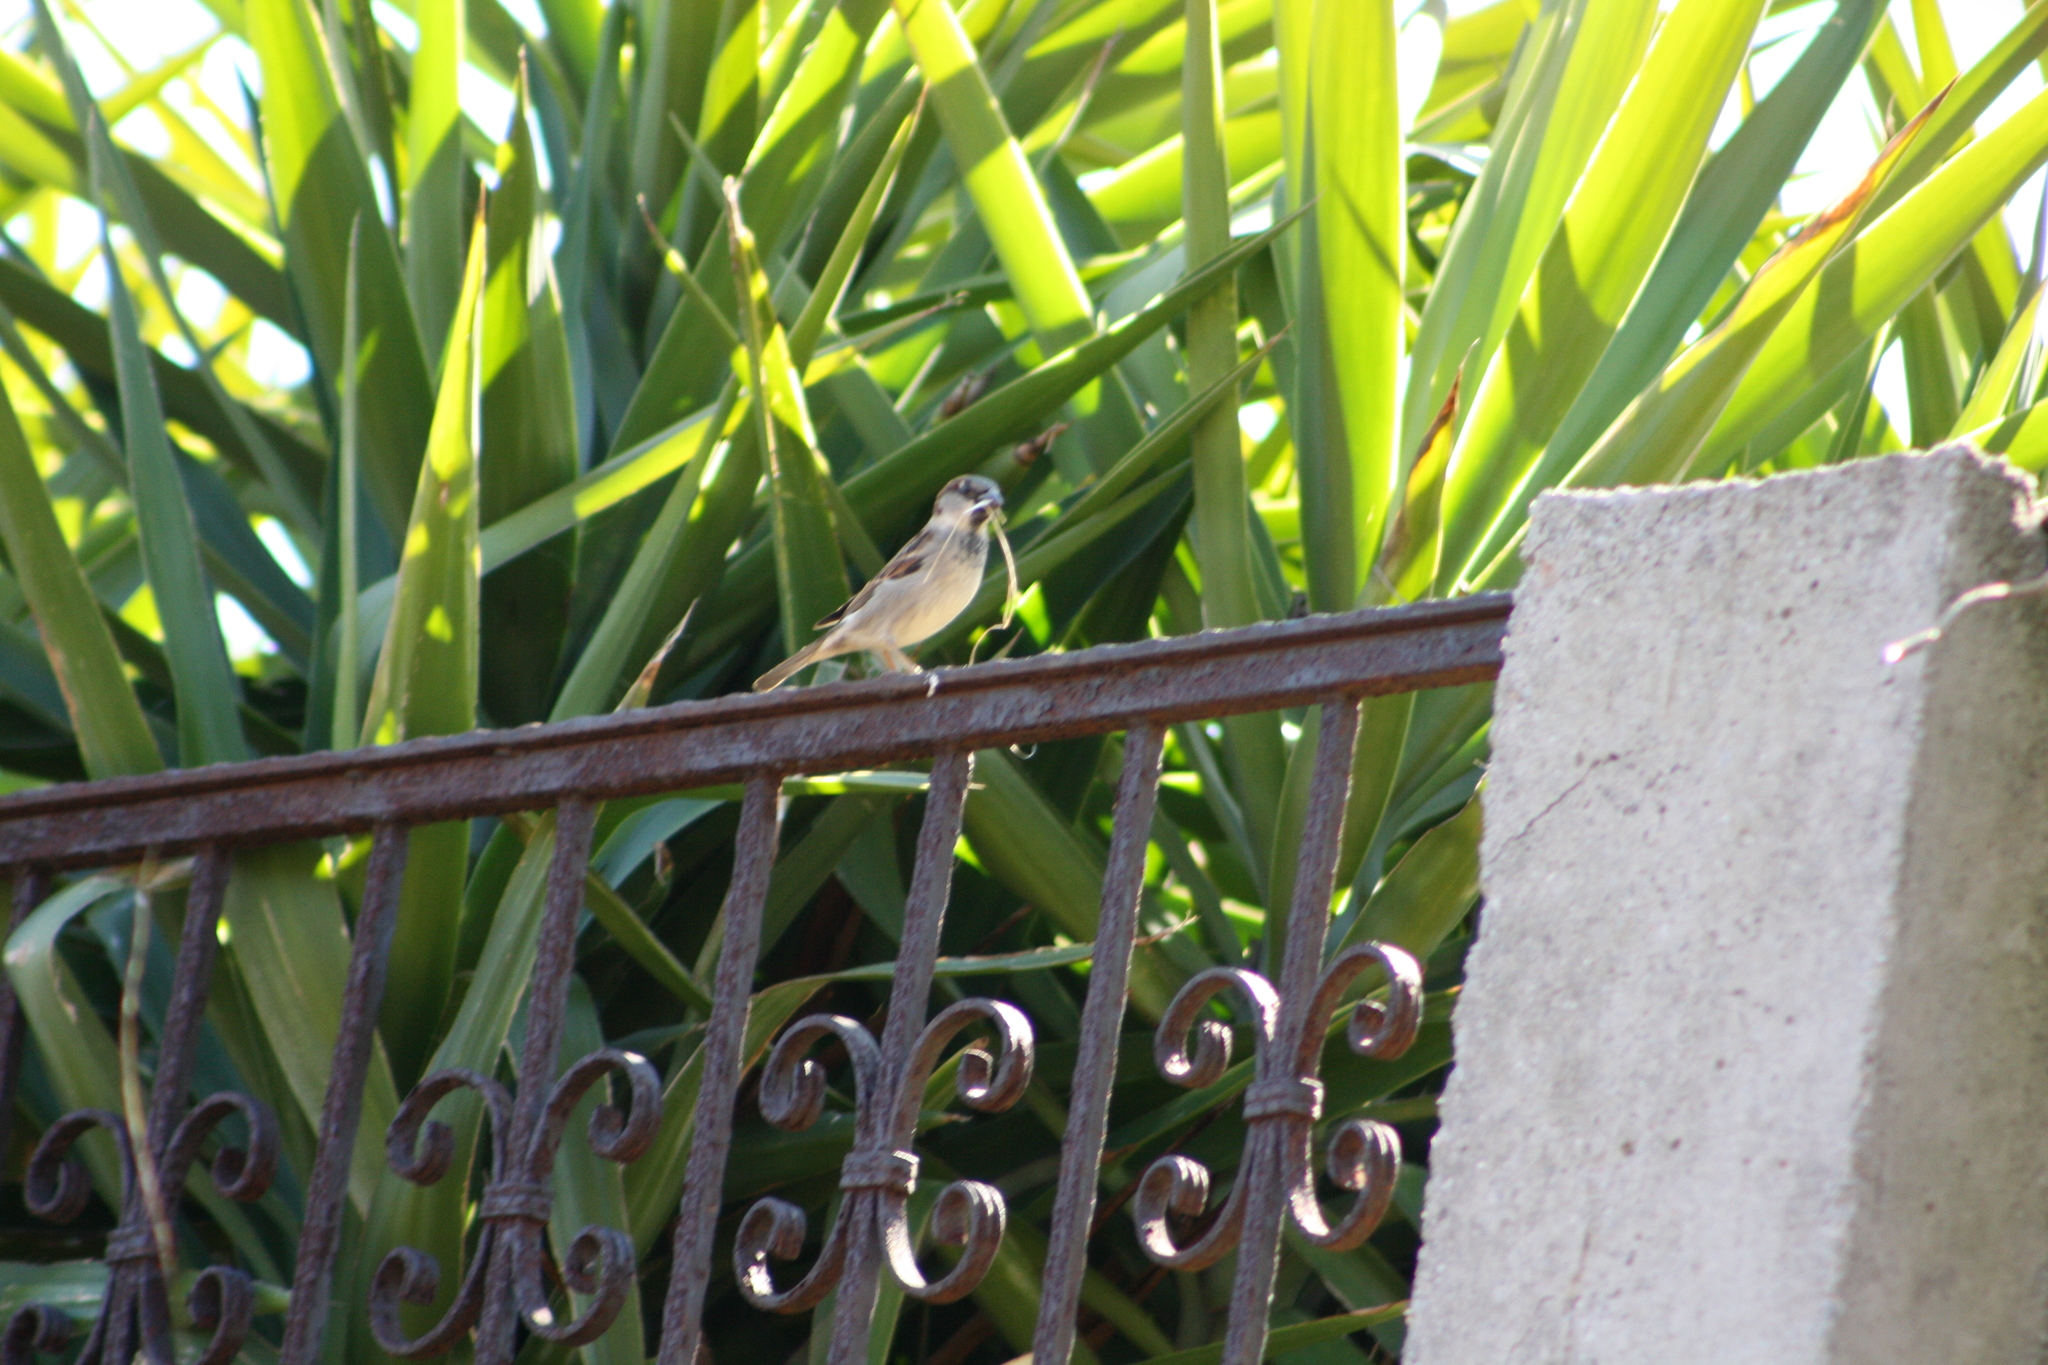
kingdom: Animalia
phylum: Chordata
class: Aves
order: Passeriformes
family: Passeridae
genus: Passer
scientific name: Passer domesticus
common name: House sparrow
